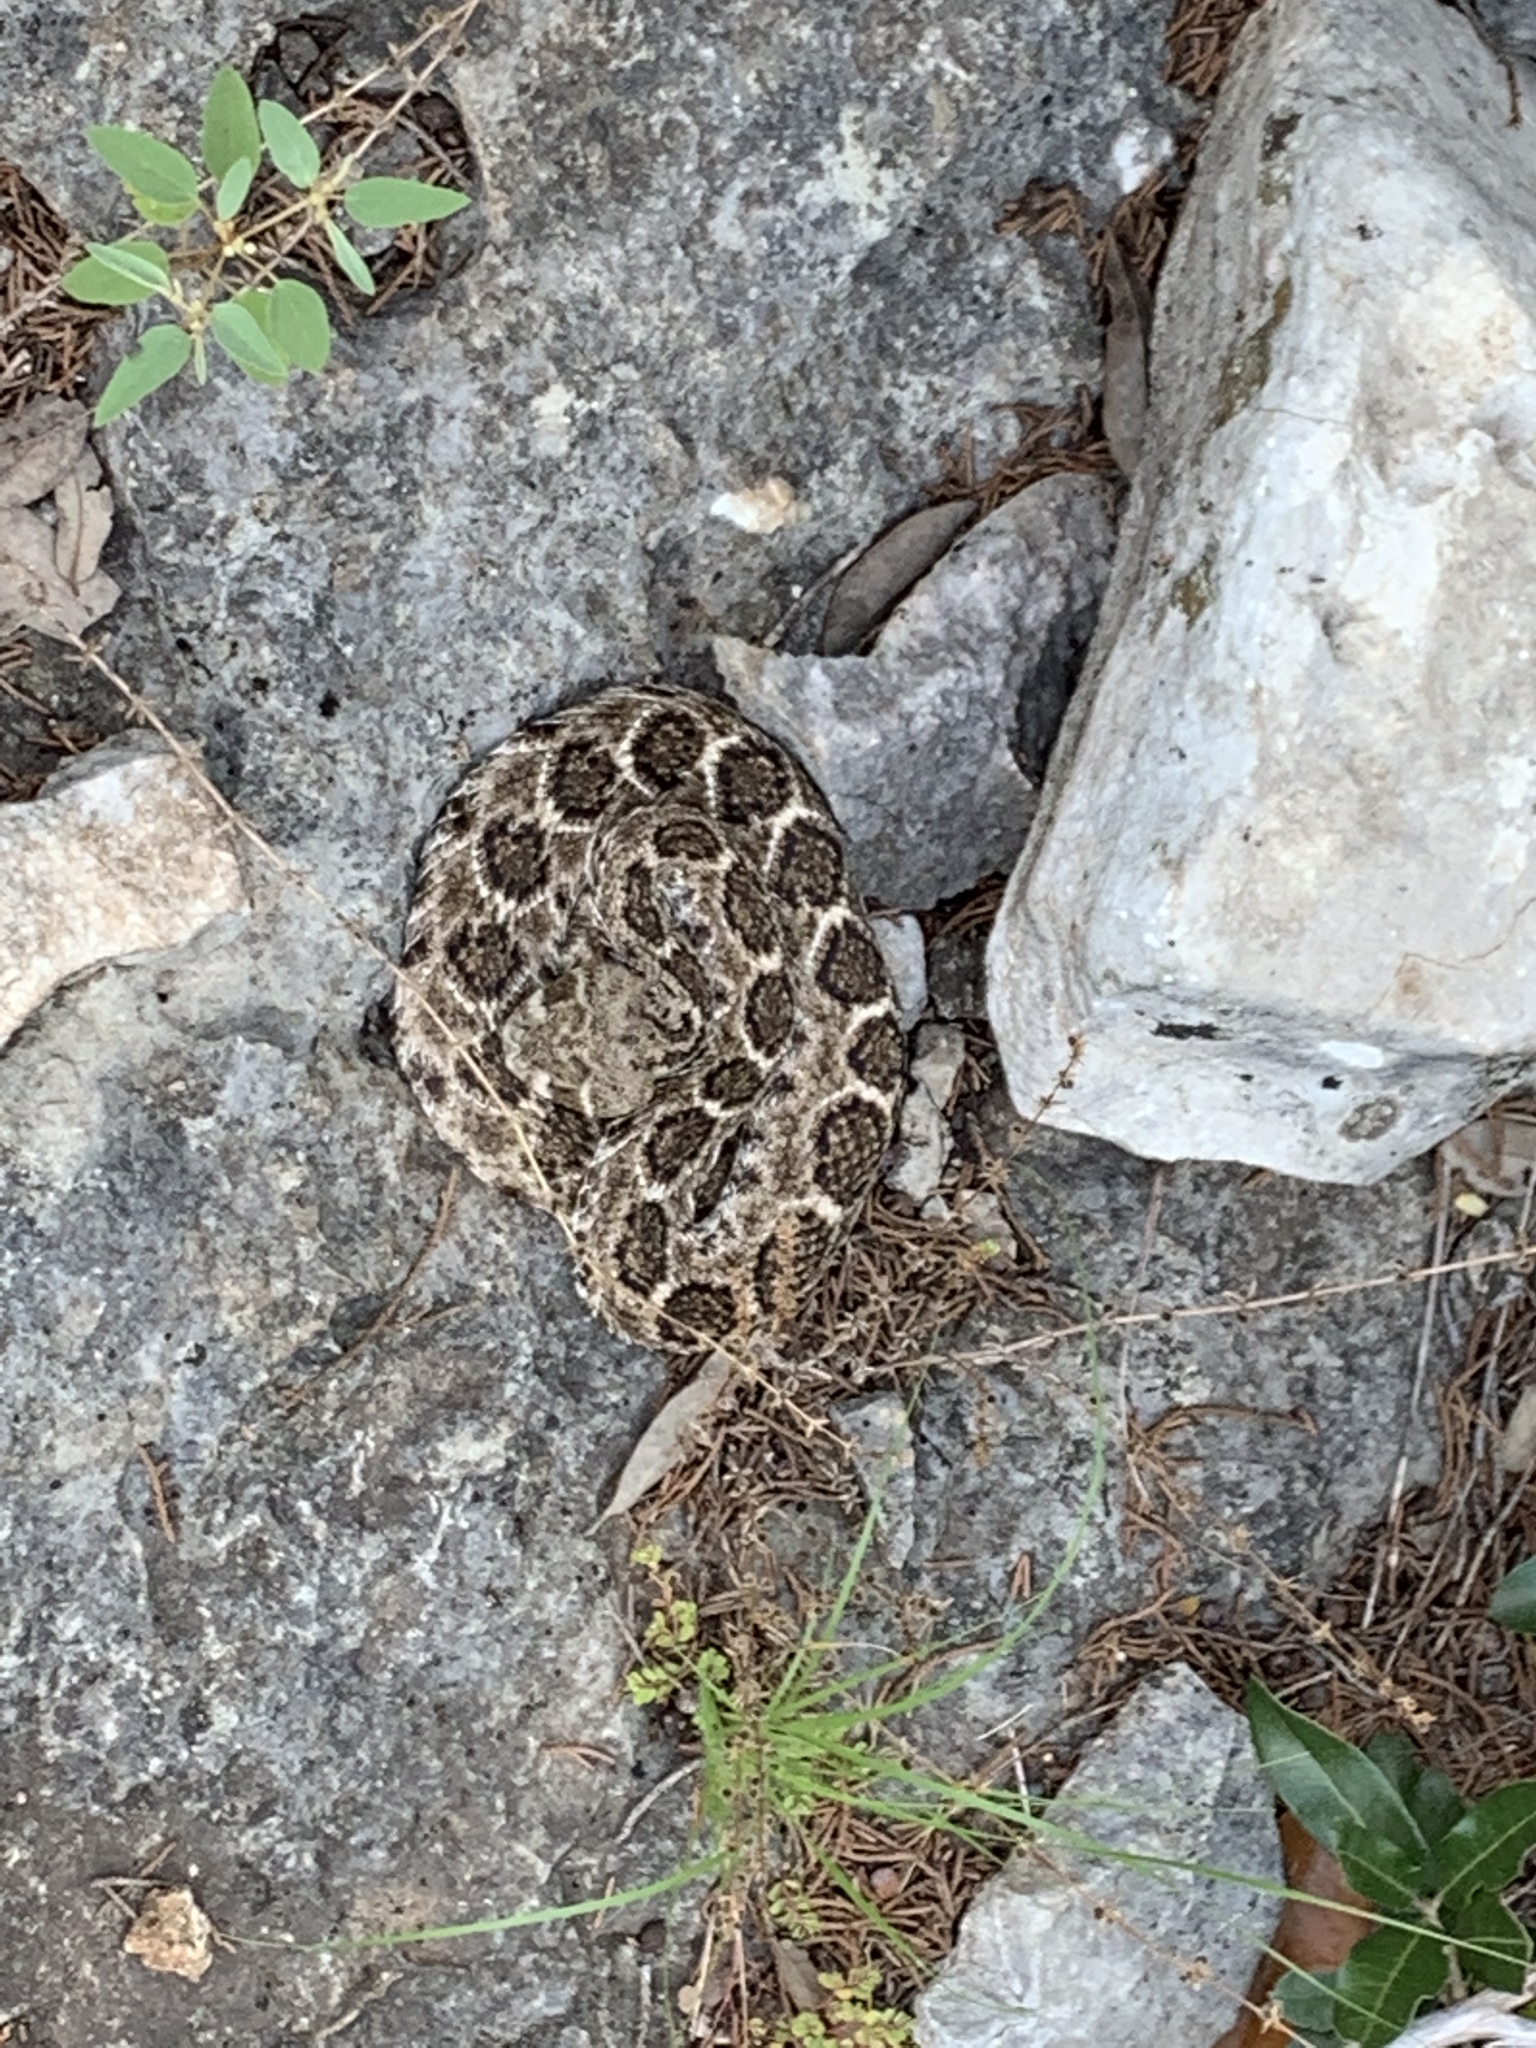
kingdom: Animalia
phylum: Chordata
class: Squamata
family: Viperidae
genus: Crotalus
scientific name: Crotalus atrox
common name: Western diamond-backed rattlesnake
